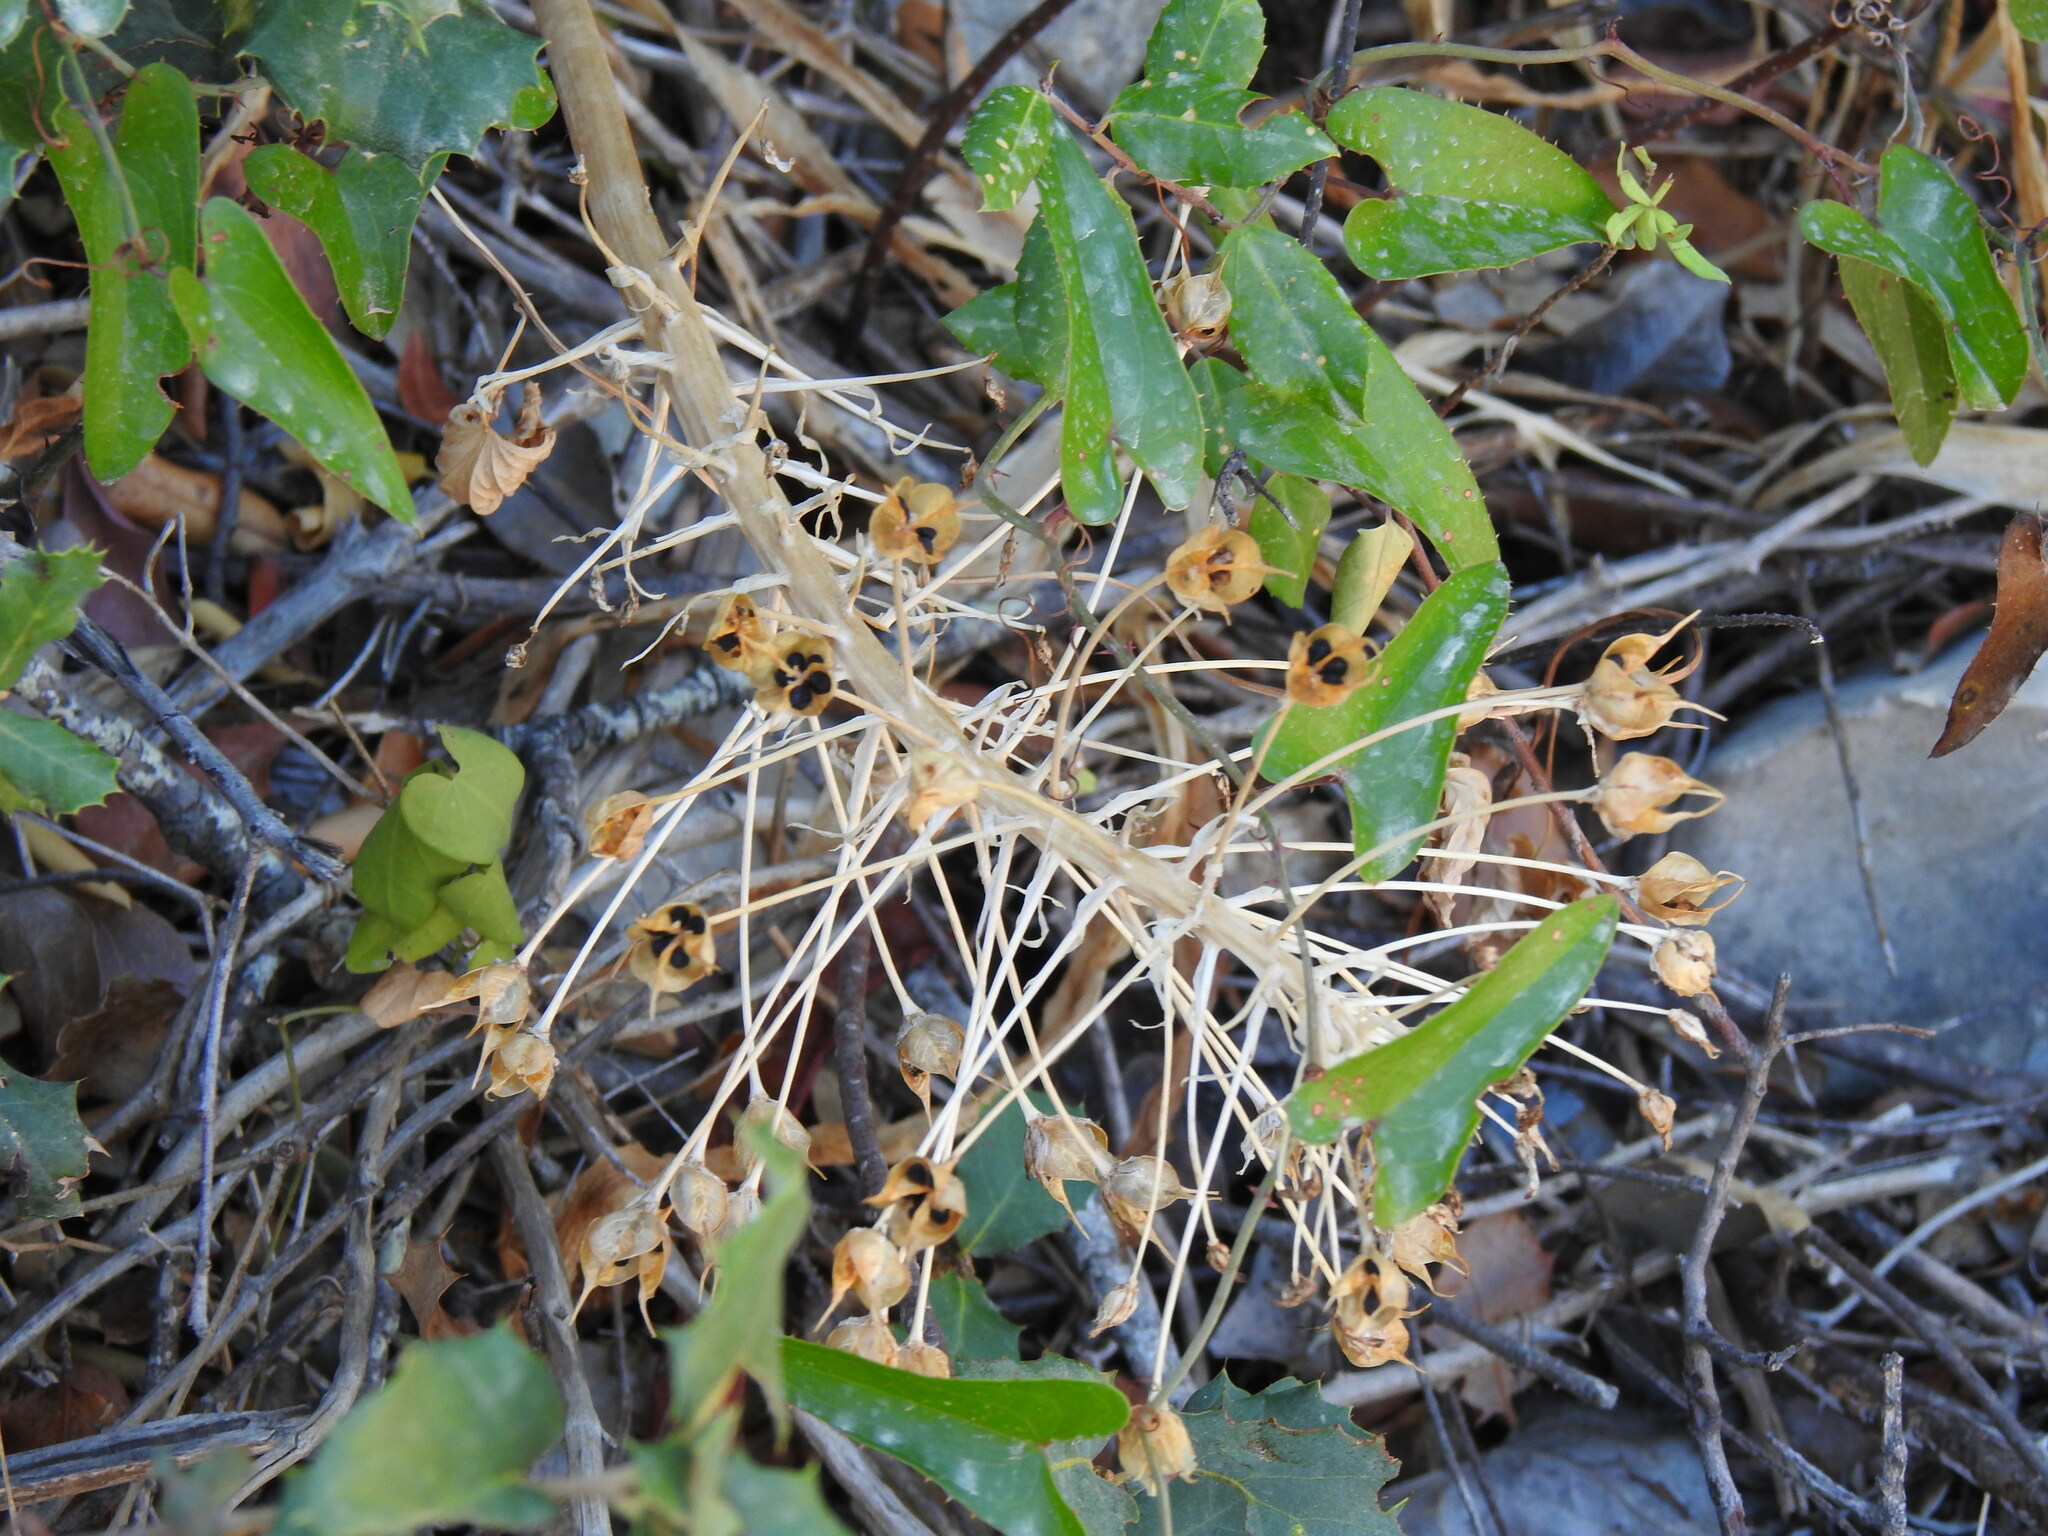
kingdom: Plantae
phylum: Tracheophyta
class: Liliopsida
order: Asparagales
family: Asparagaceae
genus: Scilla
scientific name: Scilla peruviana
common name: Portuguese squill
